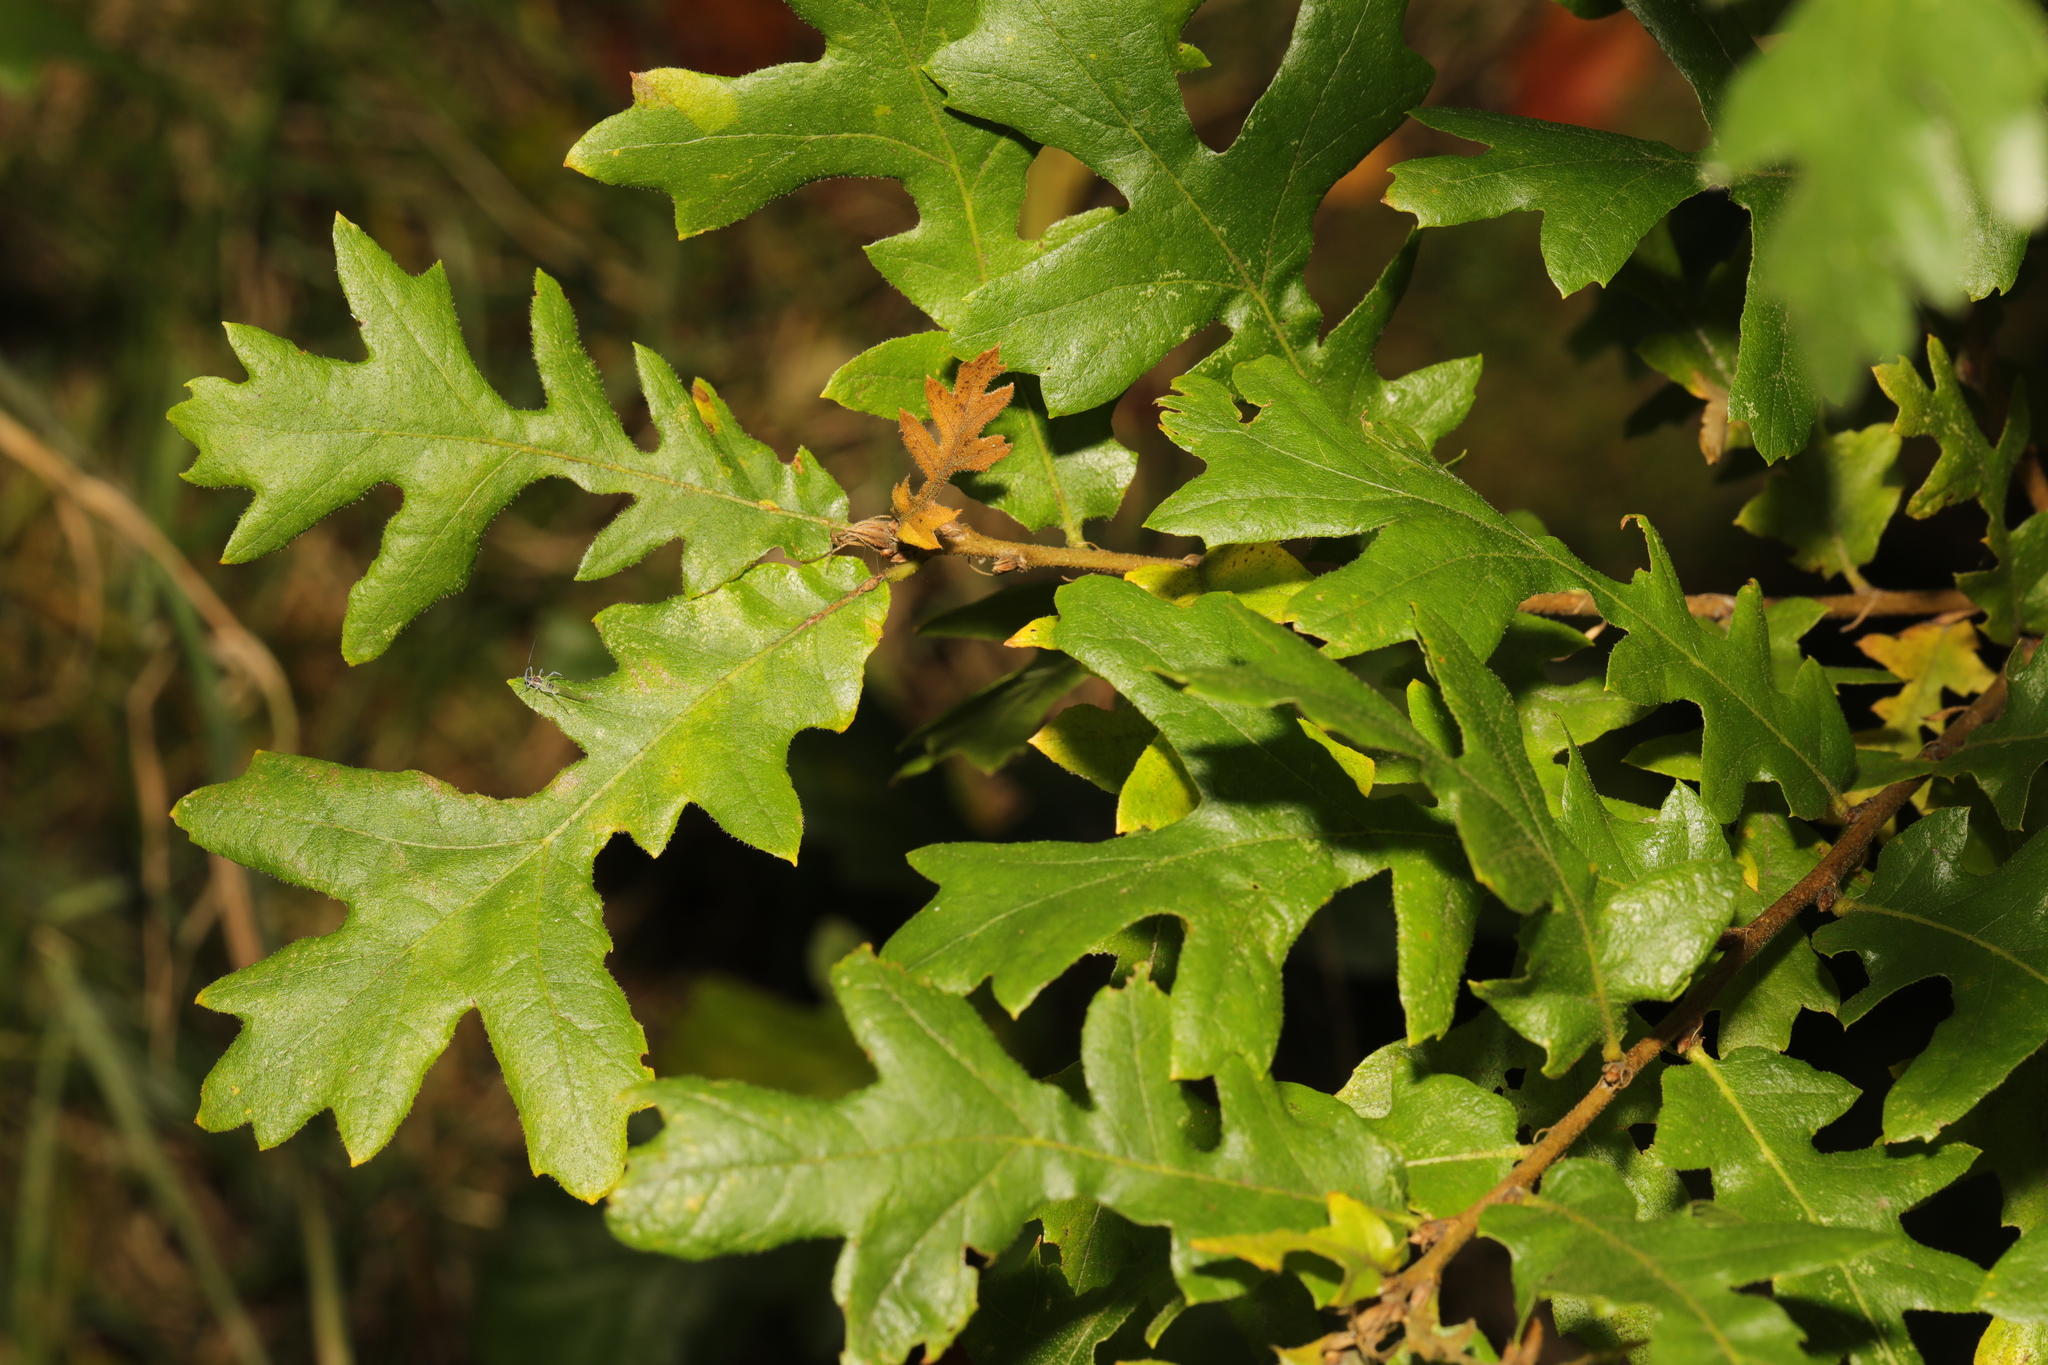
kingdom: Plantae
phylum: Tracheophyta
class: Magnoliopsida
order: Fagales
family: Fagaceae
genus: Quercus
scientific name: Quercus cerris
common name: Turkey oak
